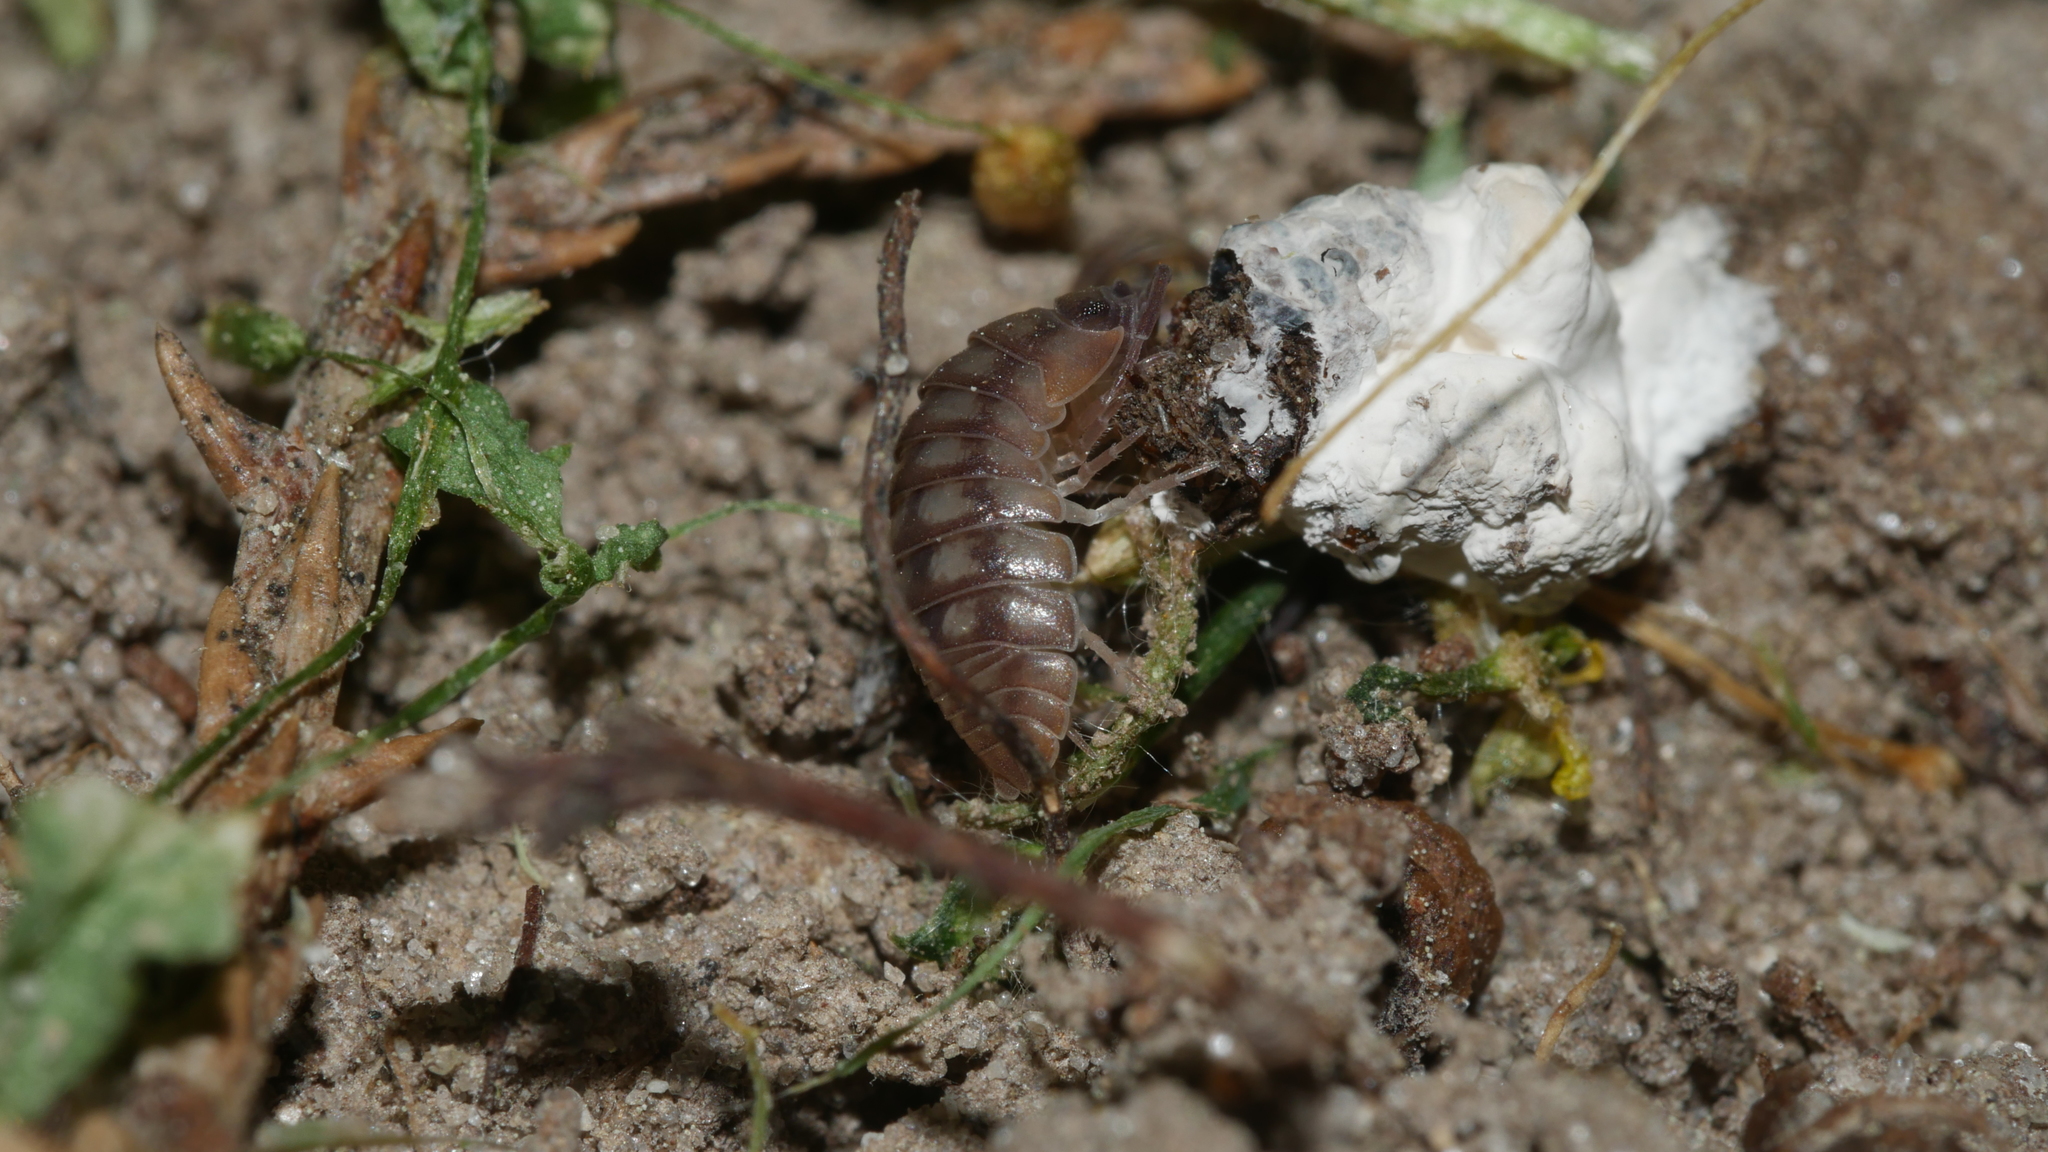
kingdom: Animalia
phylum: Arthropoda
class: Malacostraca
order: Isopoda
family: Armadillidiidae
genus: Armadillidium
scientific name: Armadillidium nasatum
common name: Isopod
